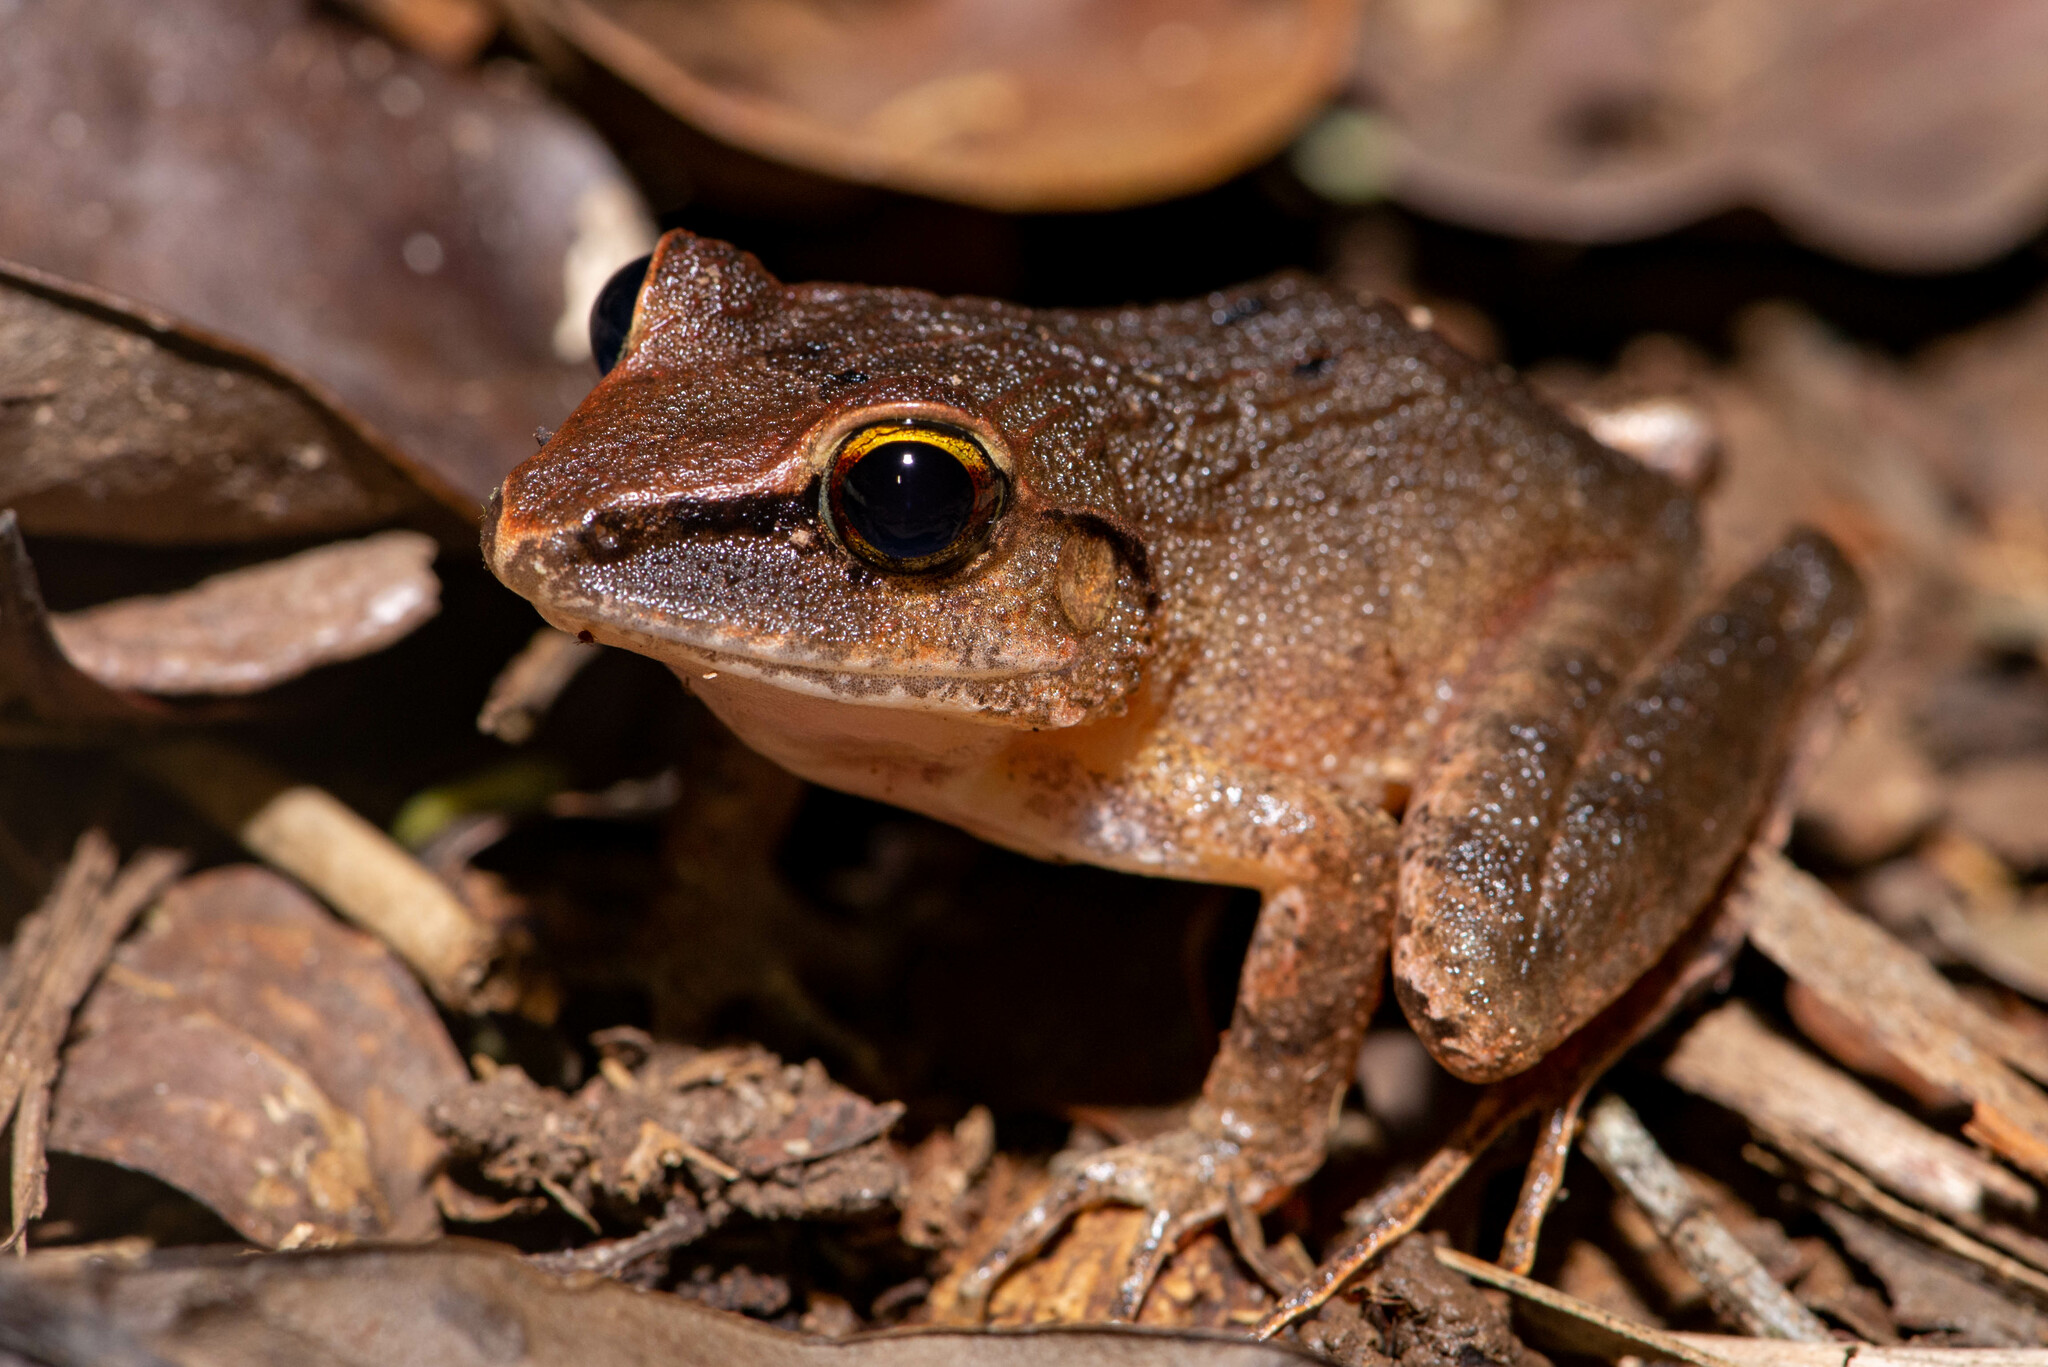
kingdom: Animalia
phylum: Chordata
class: Amphibia
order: Anura
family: Craugastoridae
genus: Haddadus
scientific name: Haddadus binotatus
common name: Clay robber frog
